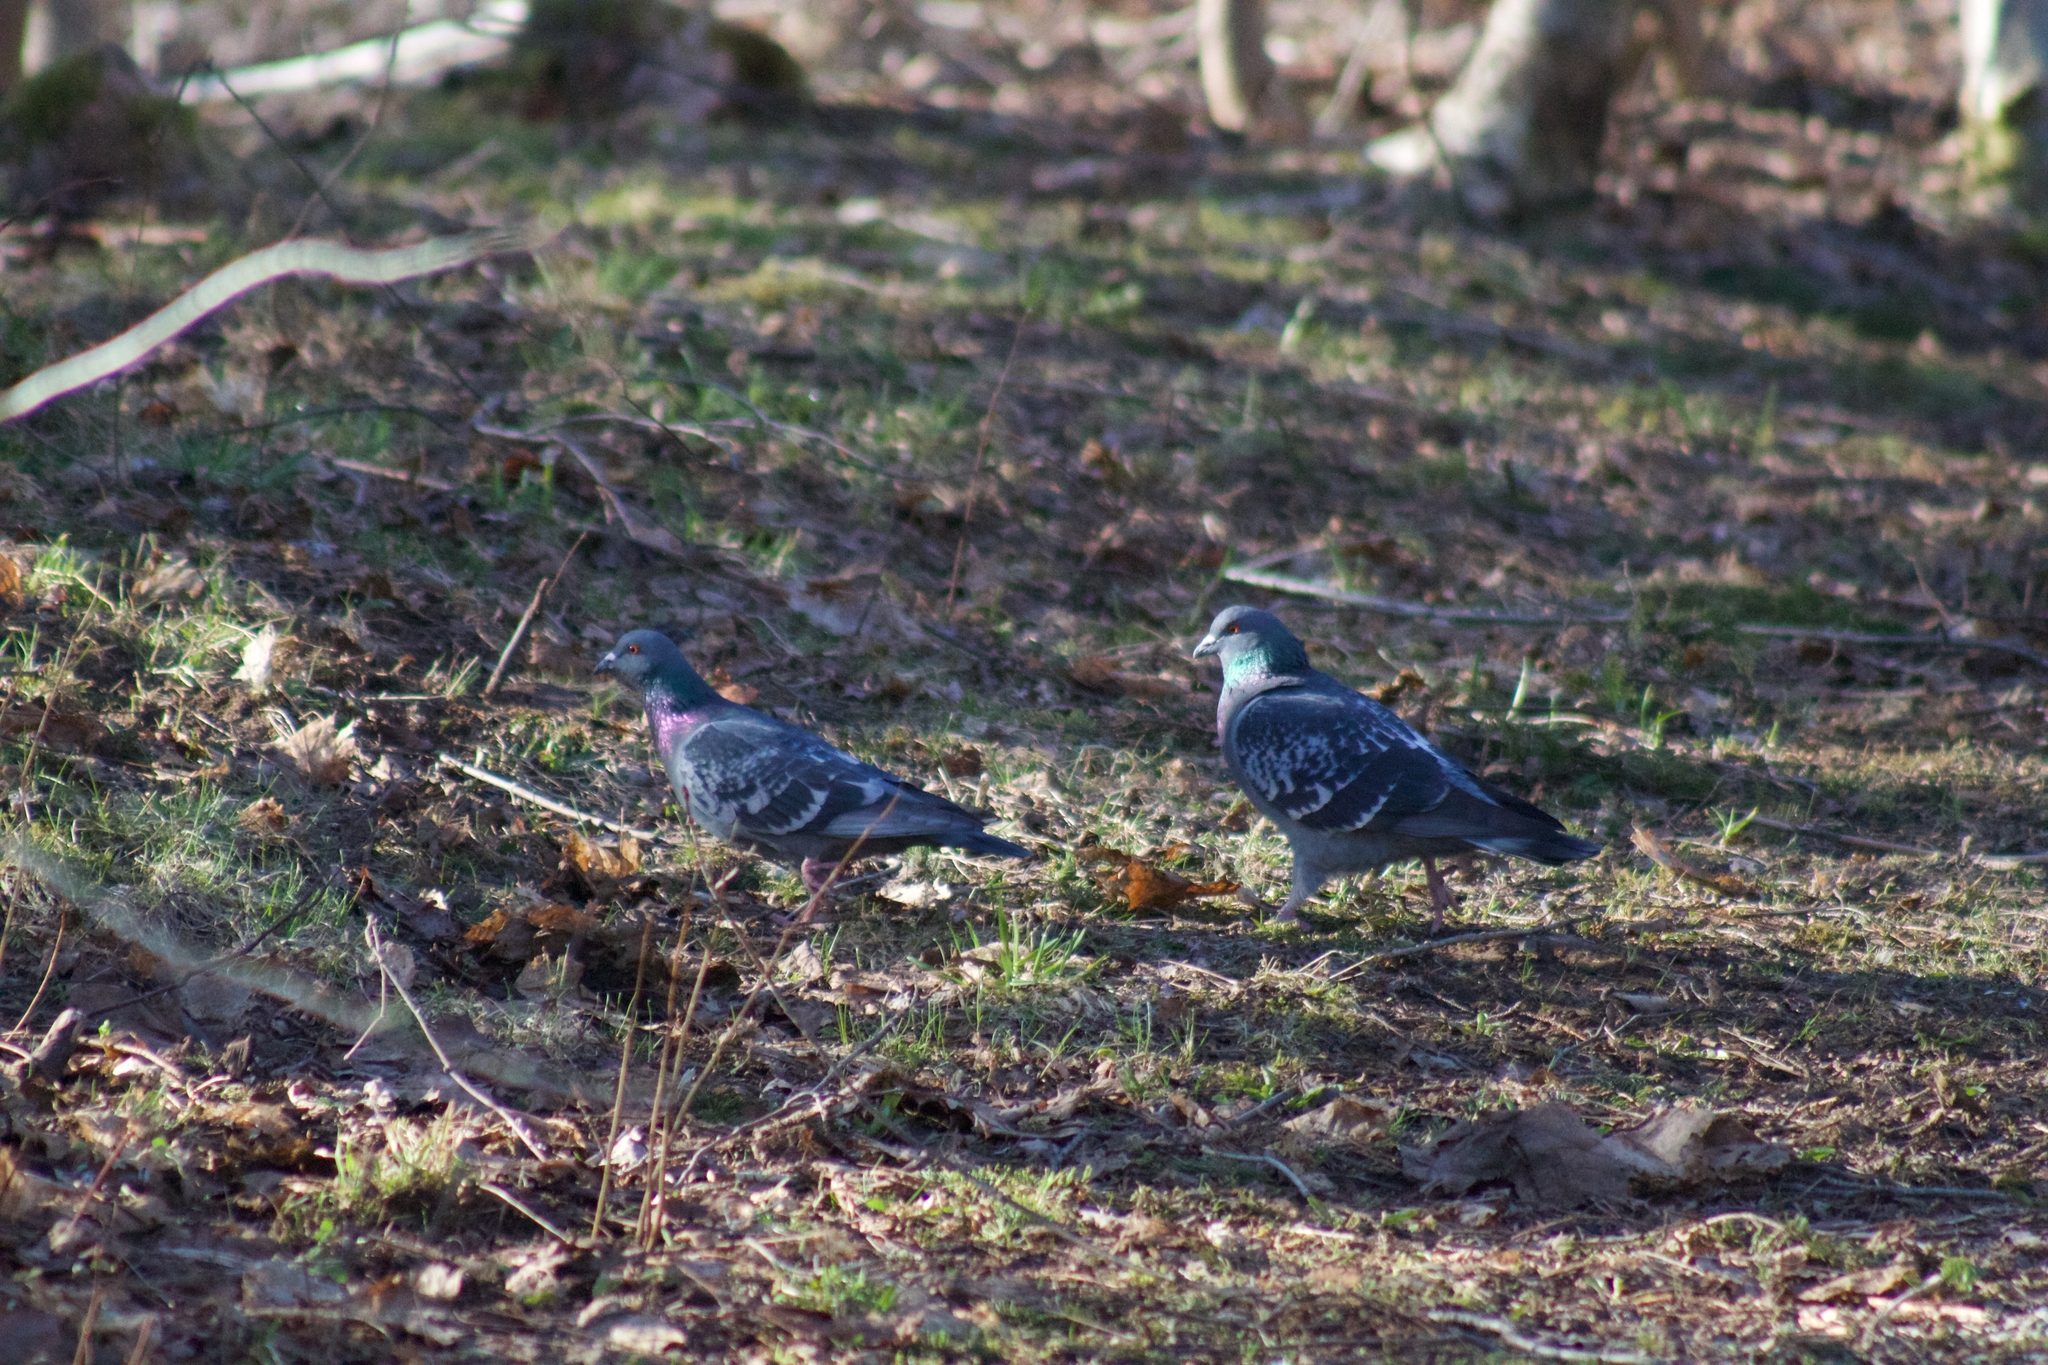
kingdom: Animalia
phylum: Chordata
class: Aves
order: Columbiformes
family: Columbidae
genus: Columba
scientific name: Columba livia
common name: Rock pigeon
